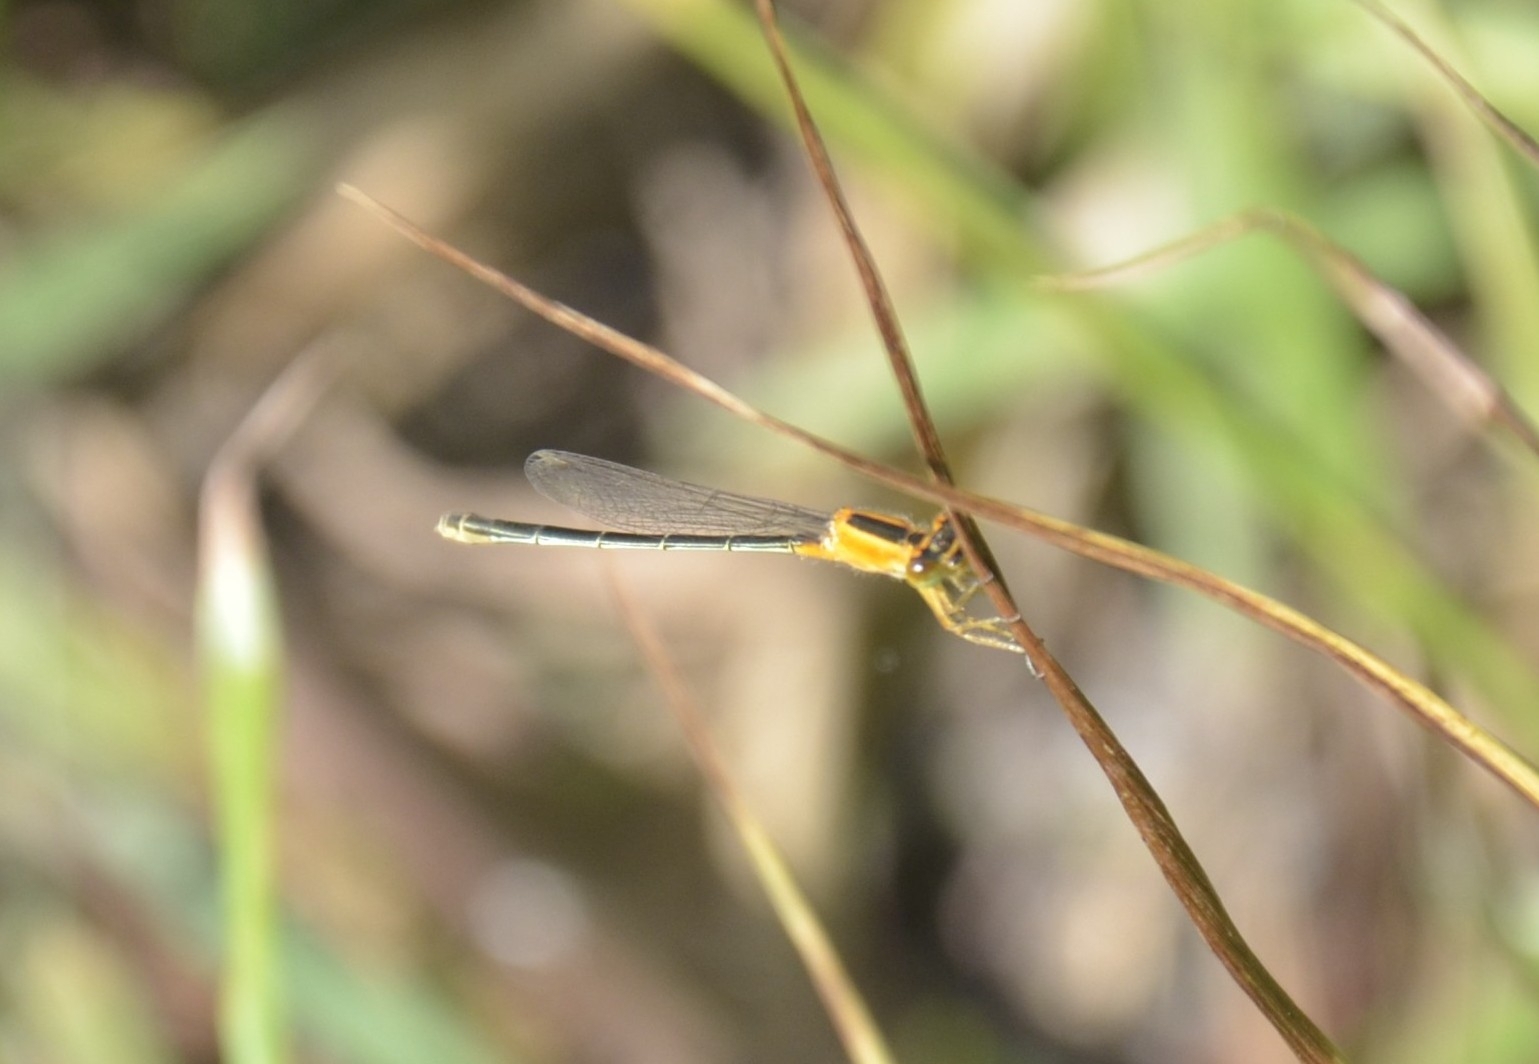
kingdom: Animalia
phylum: Arthropoda
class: Insecta
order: Odonata
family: Coenagrionidae
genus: Ischnura
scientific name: Ischnura senegalensis
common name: Tropical bluetail
